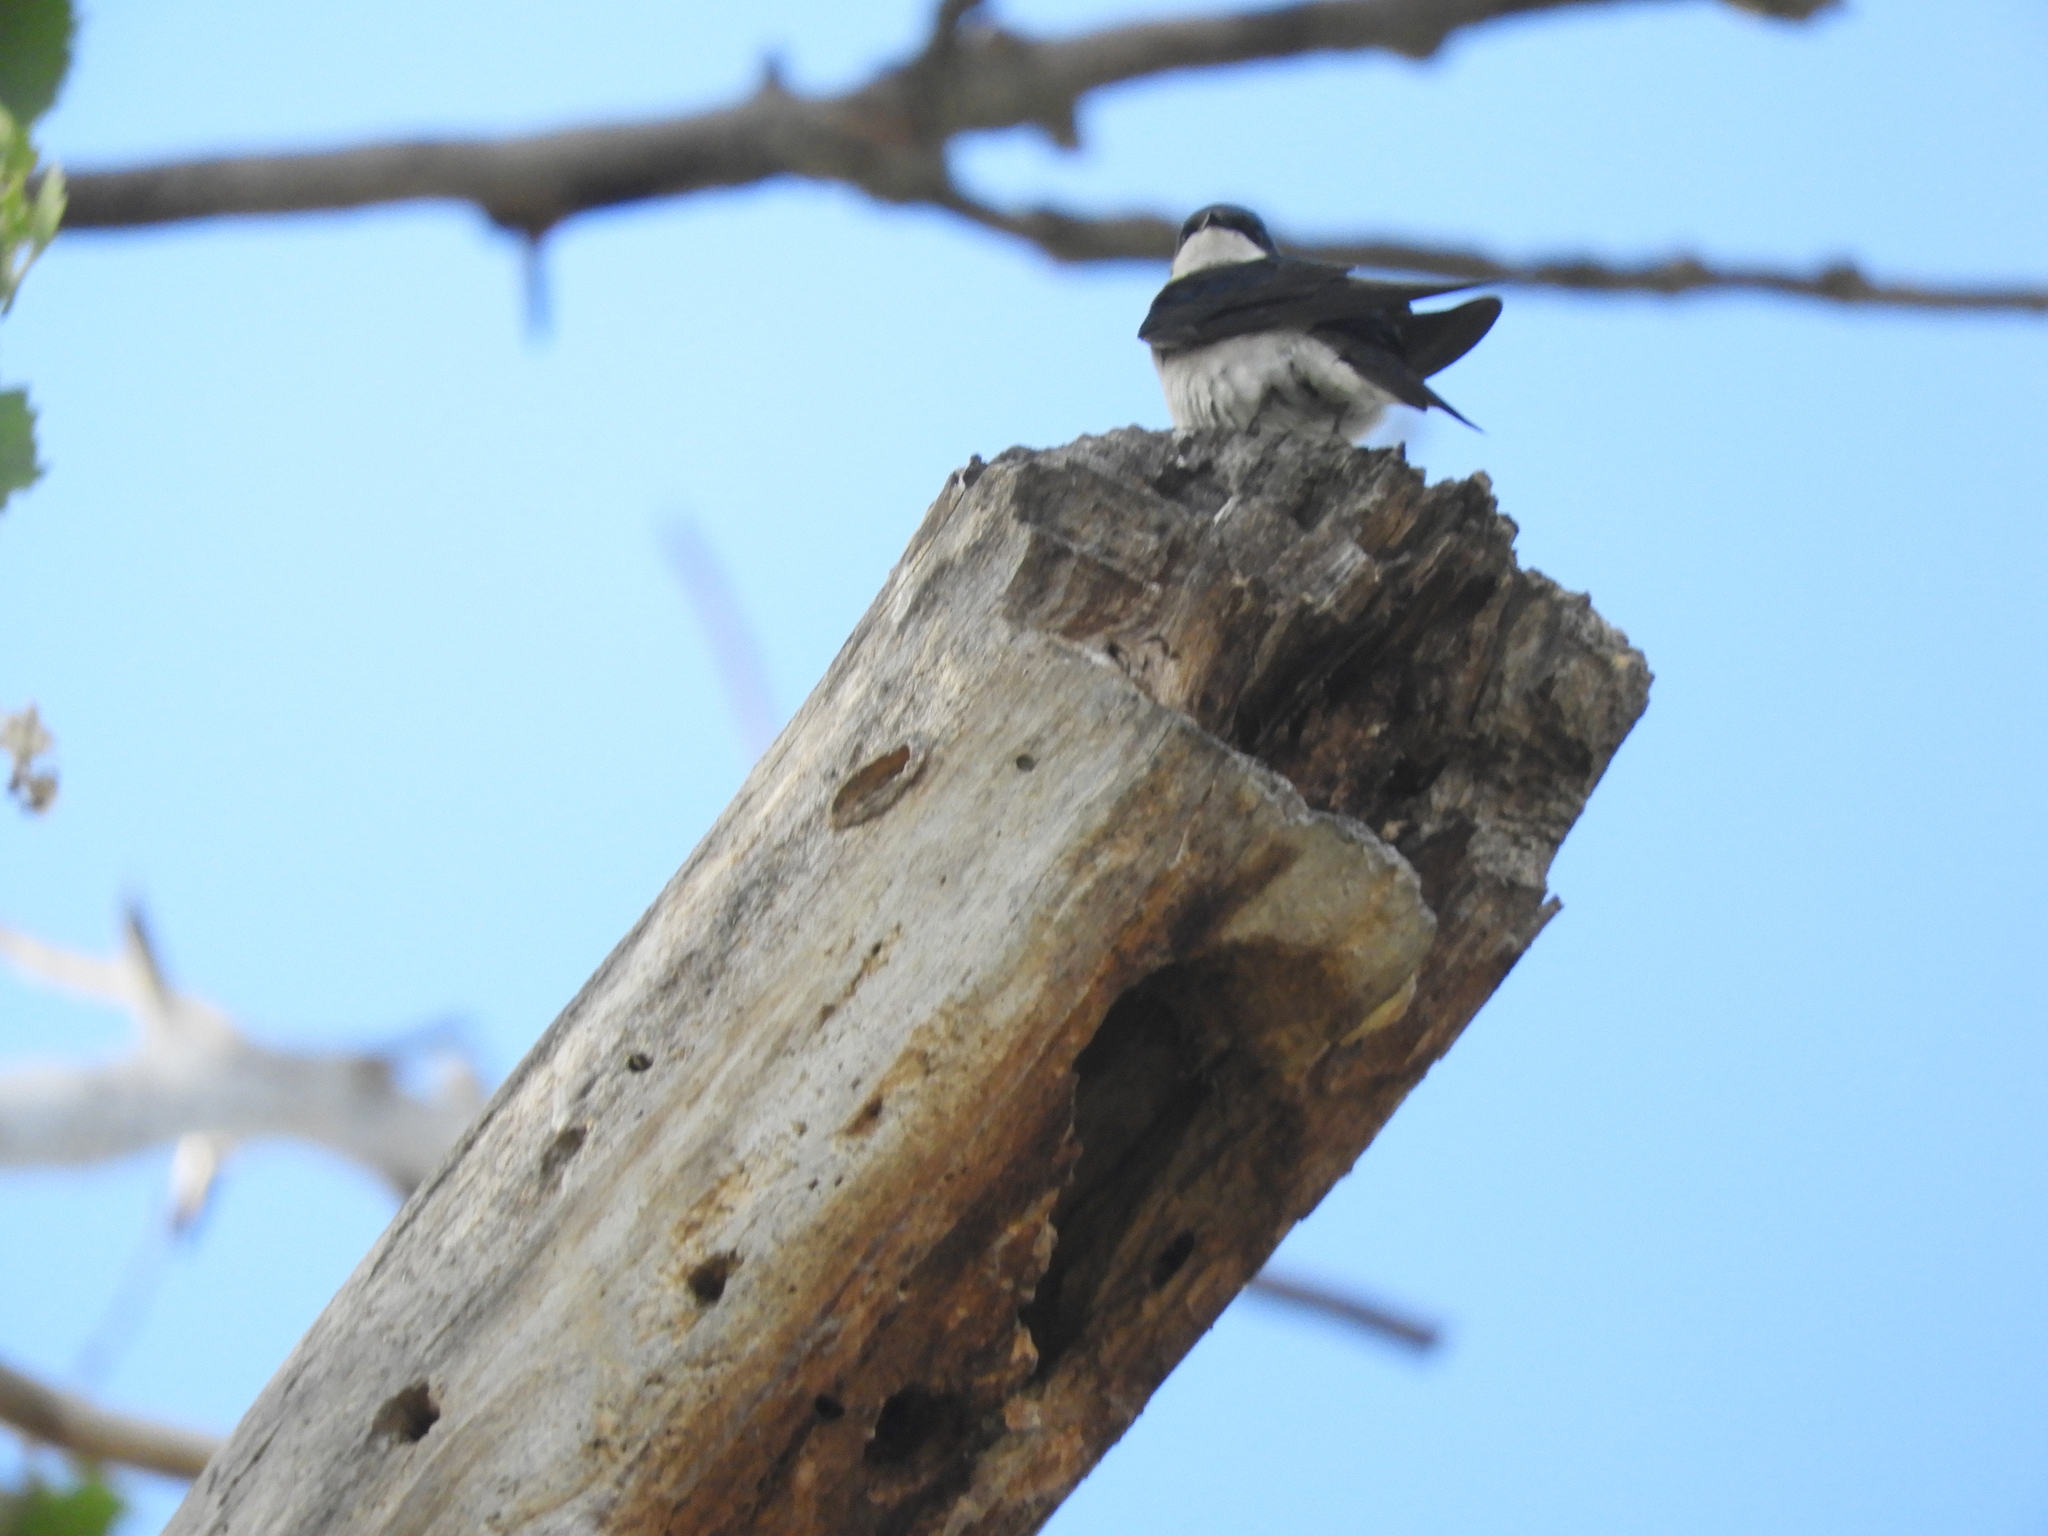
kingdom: Animalia
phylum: Chordata
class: Aves
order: Passeriformes
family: Hirundinidae
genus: Tachycineta
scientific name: Tachycineta bicolor
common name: Tree swallow
